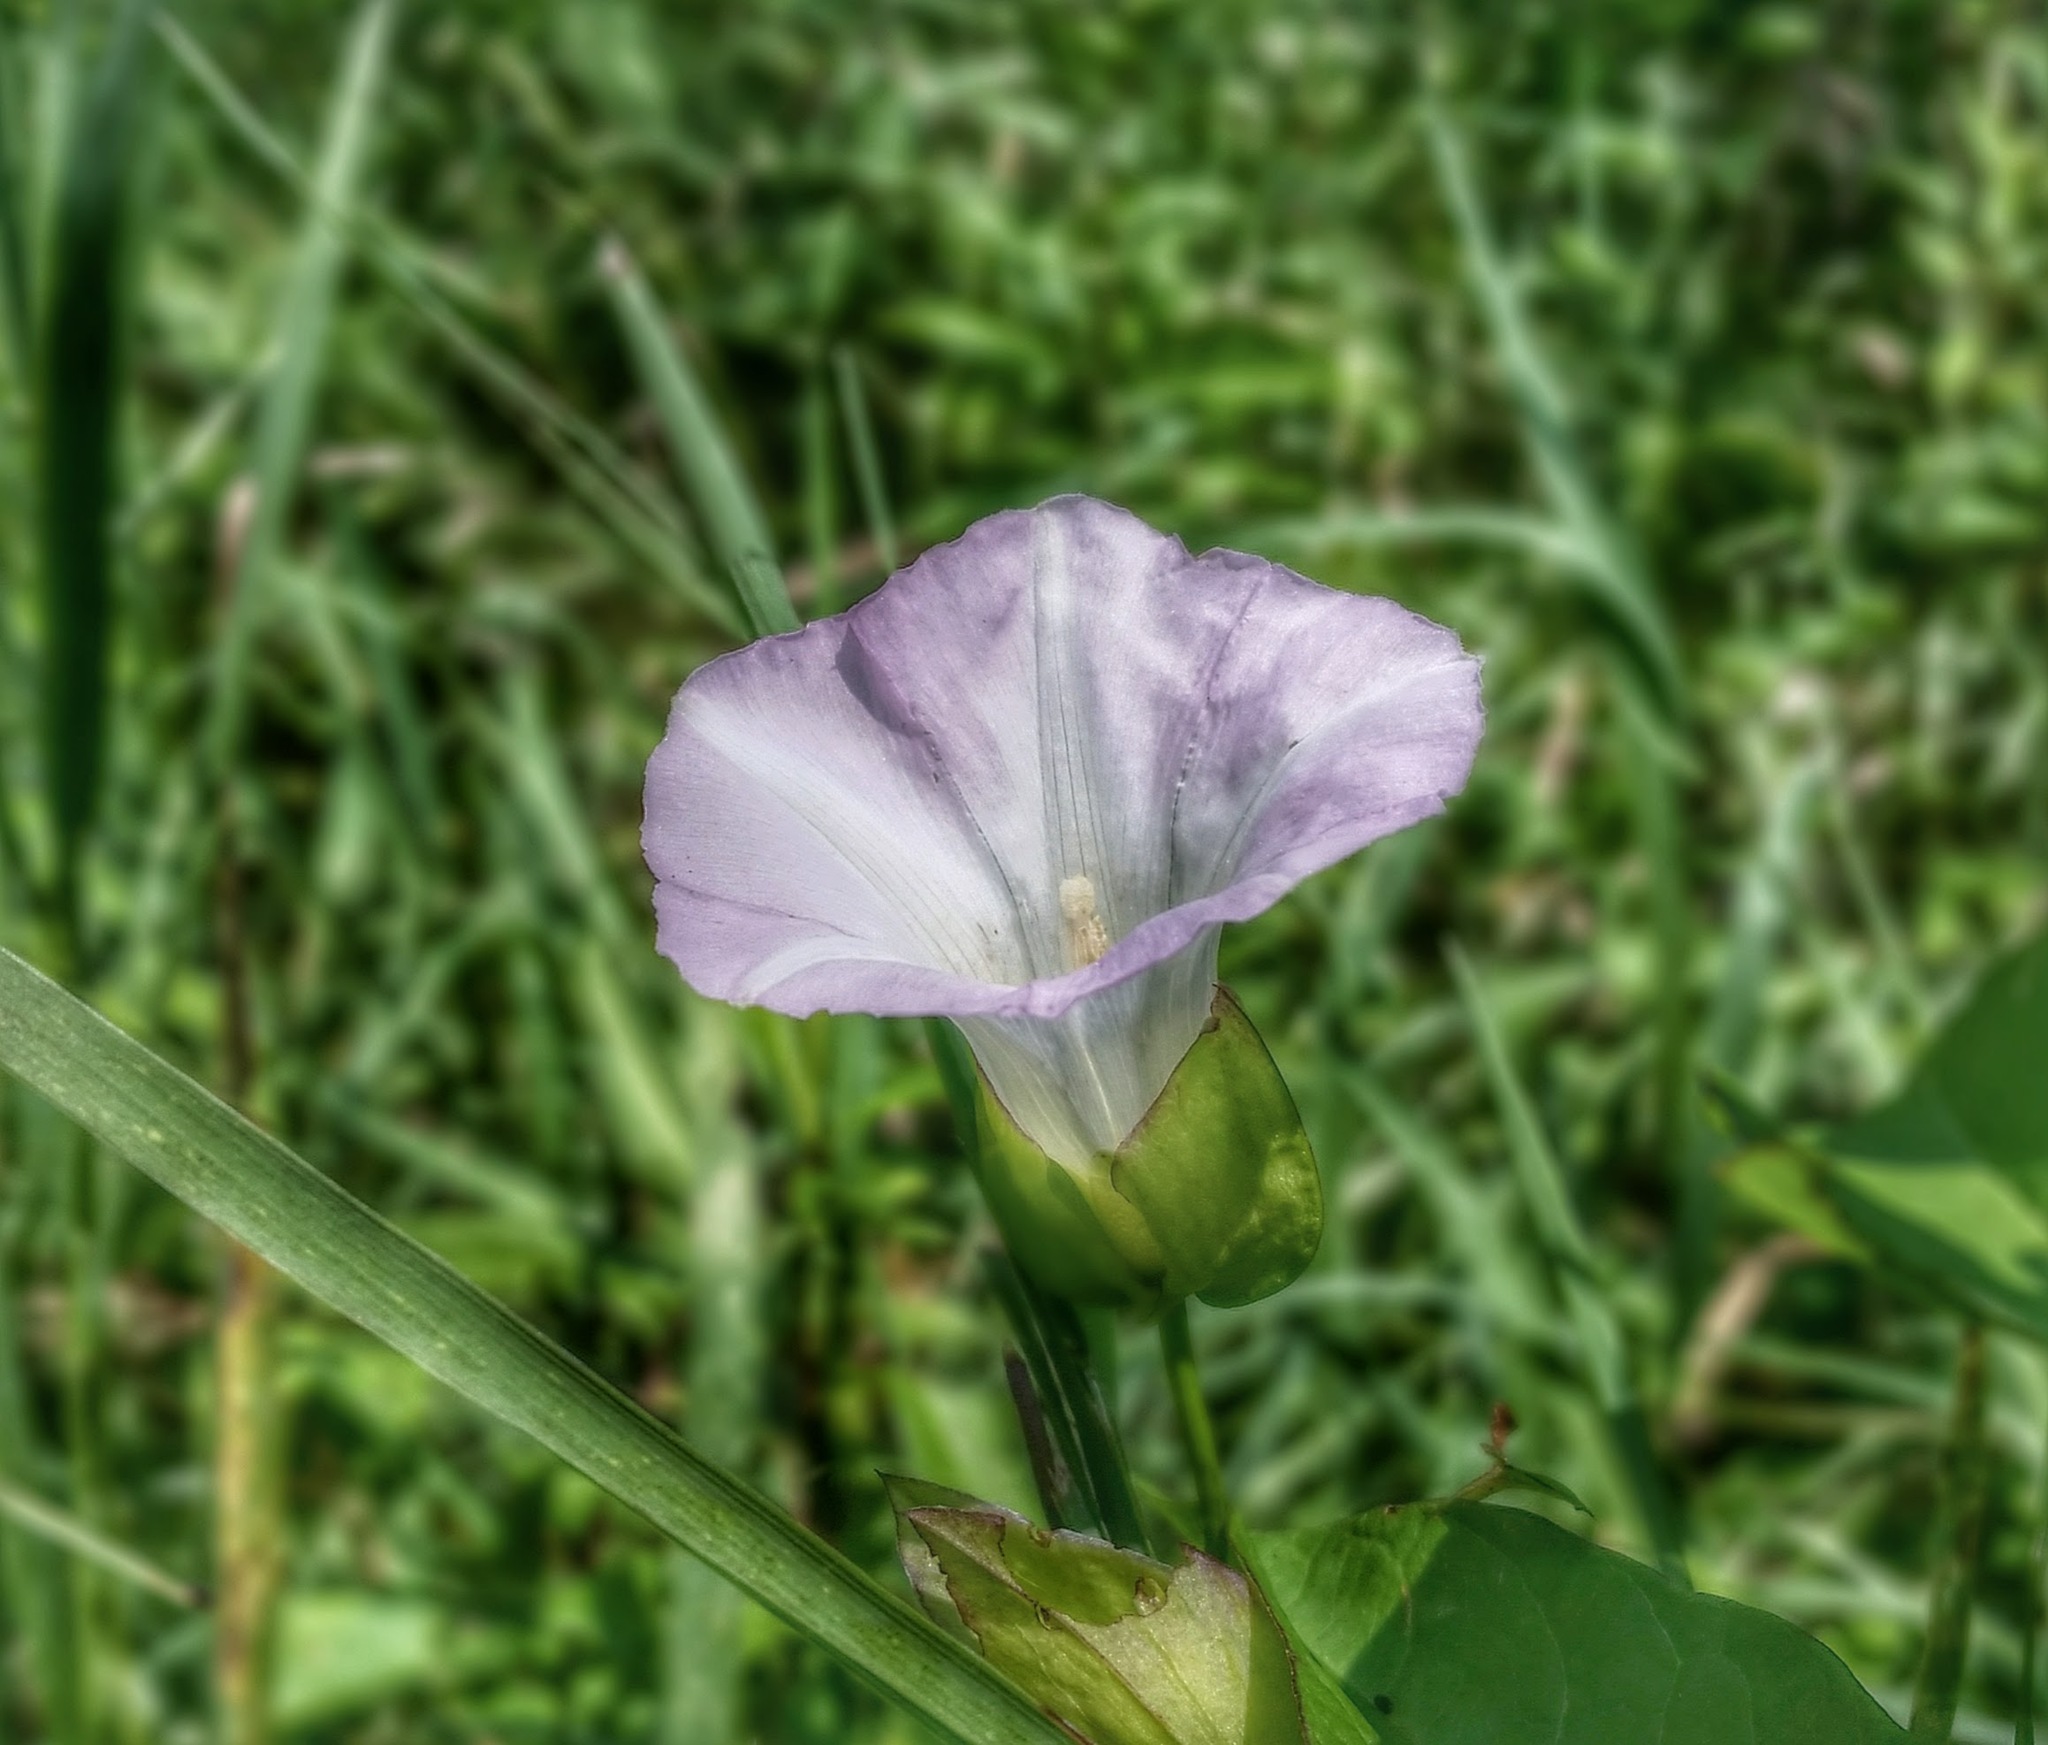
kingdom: Plantae
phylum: Tracheophyta
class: Magnoliopsida
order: Solanales
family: Convolvulaceae
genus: Calystegia
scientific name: Calystegia sepium
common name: Hedge bindweed
